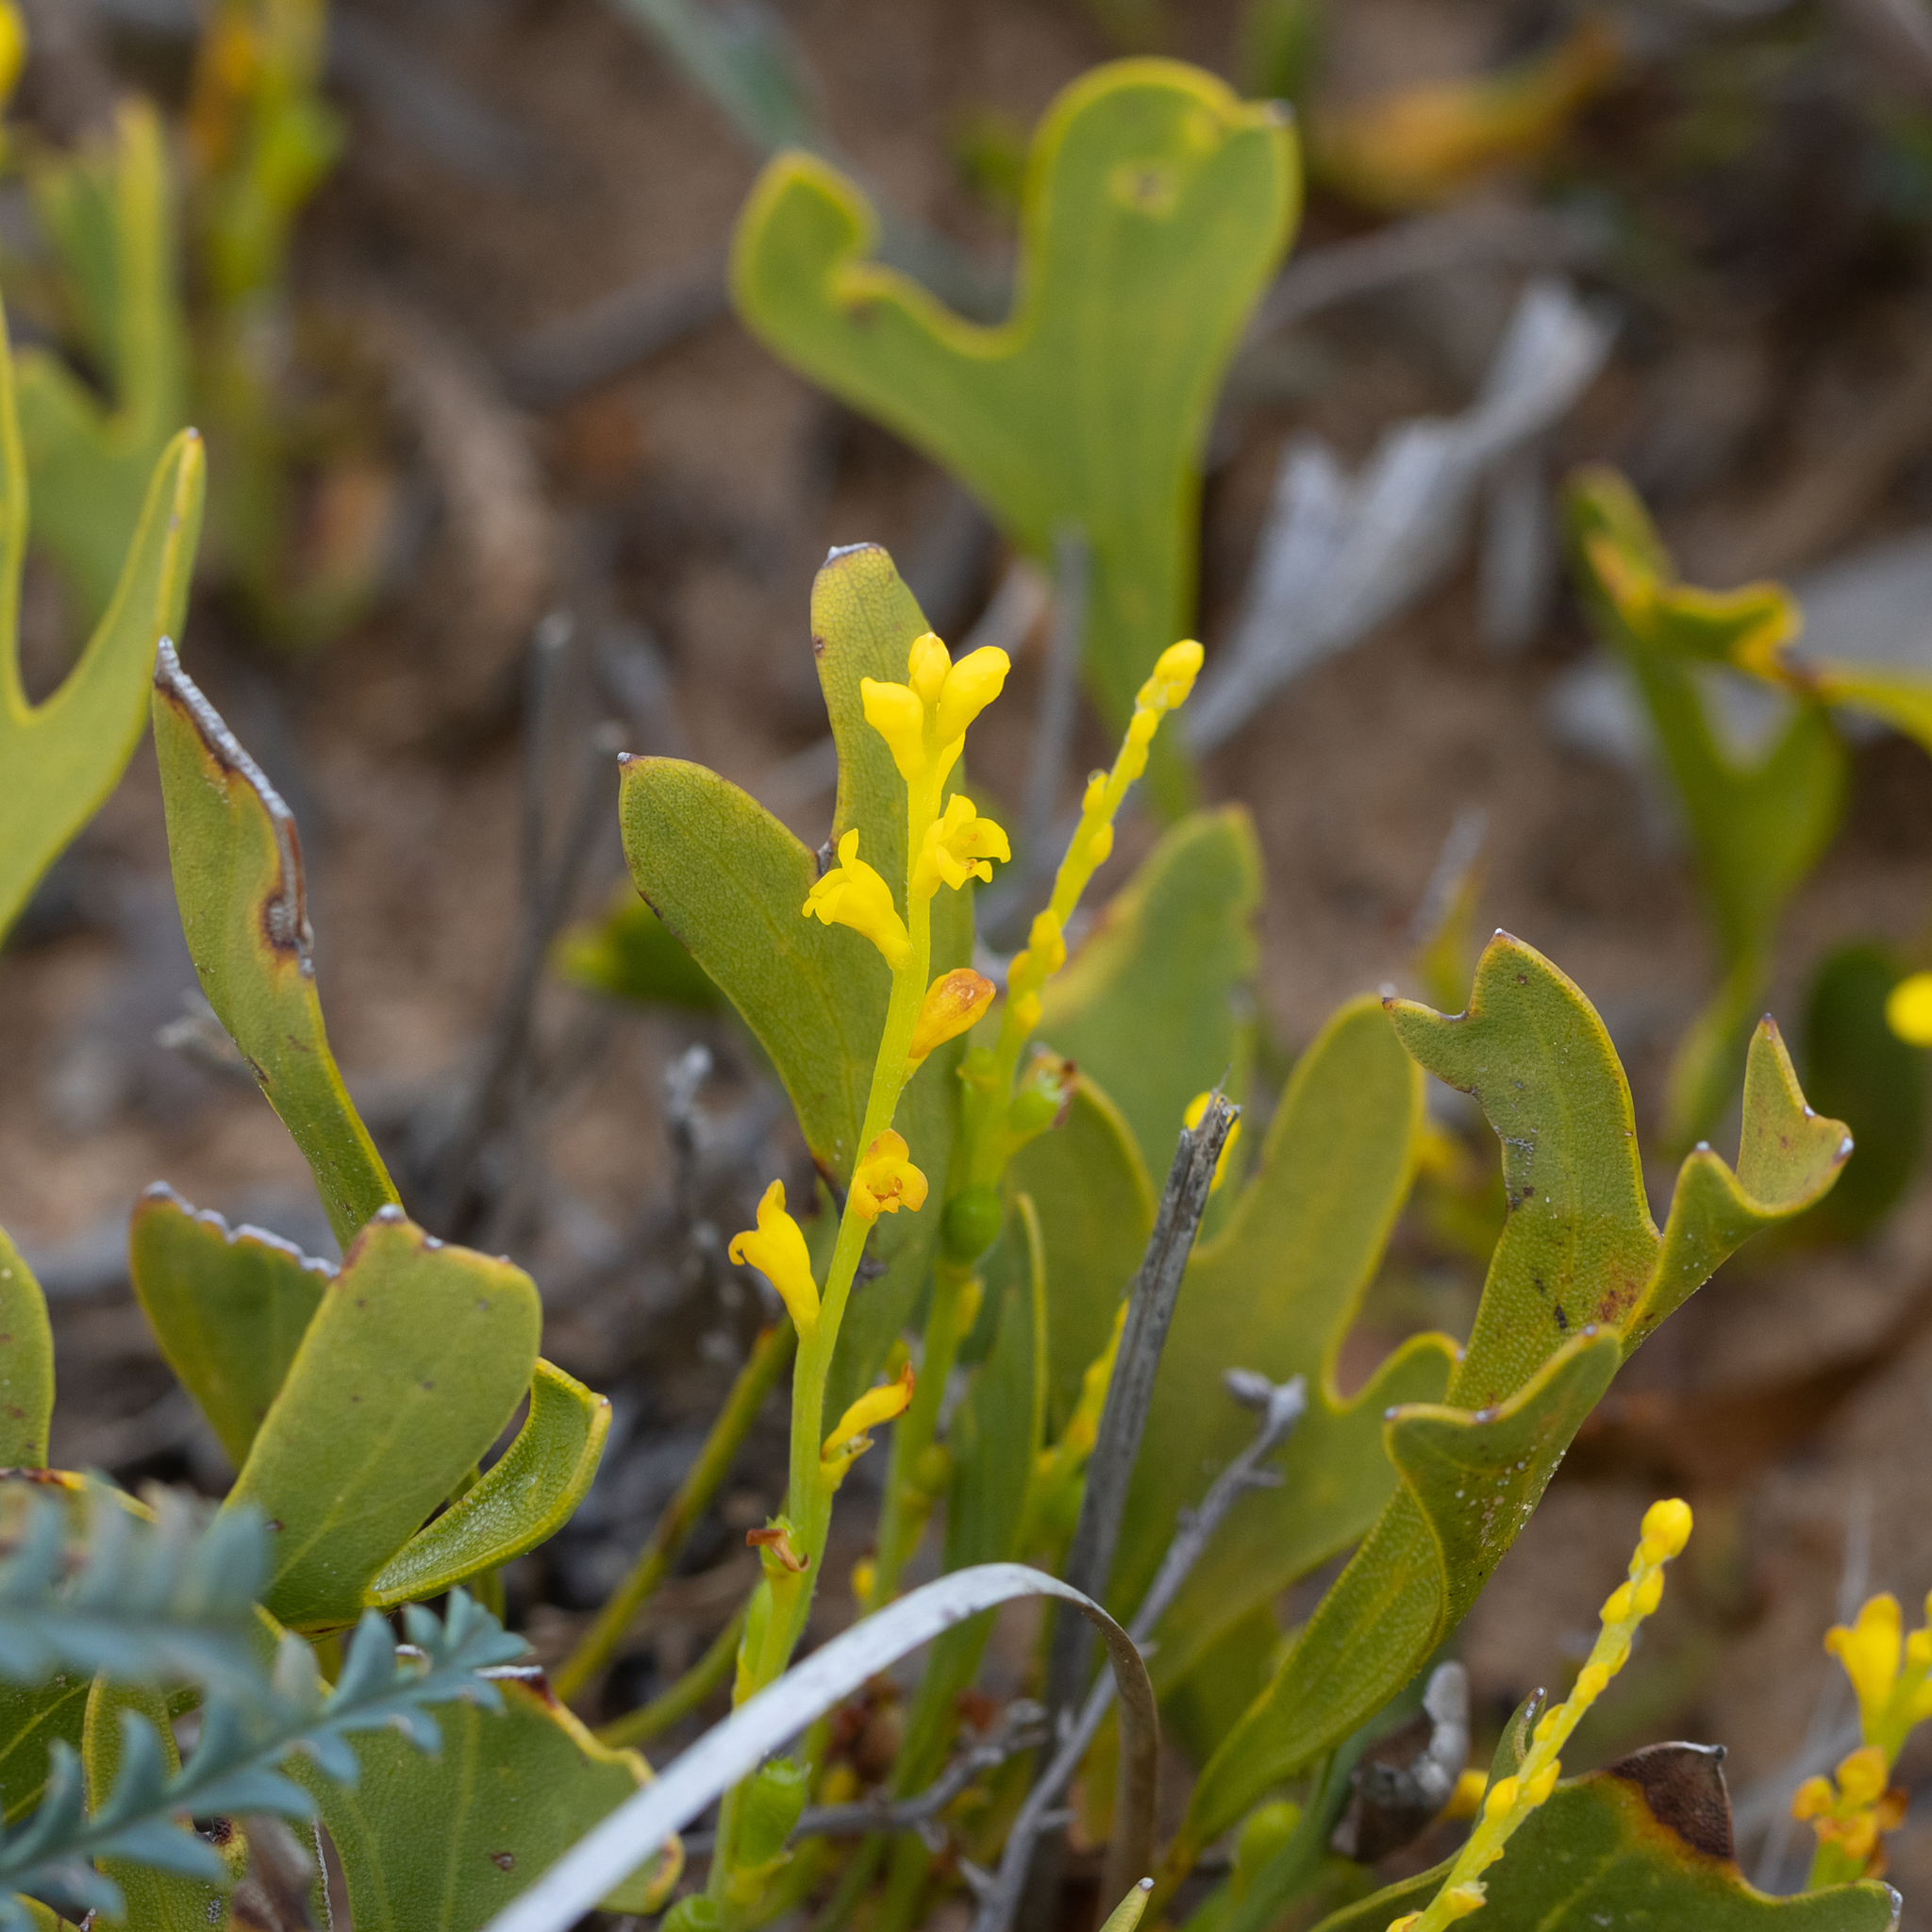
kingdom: Plantae
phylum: Tracheophyta
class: Magnoliopsida
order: Proteales
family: Proteaceae
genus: Synaphea
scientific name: Synaphea petiolaris
